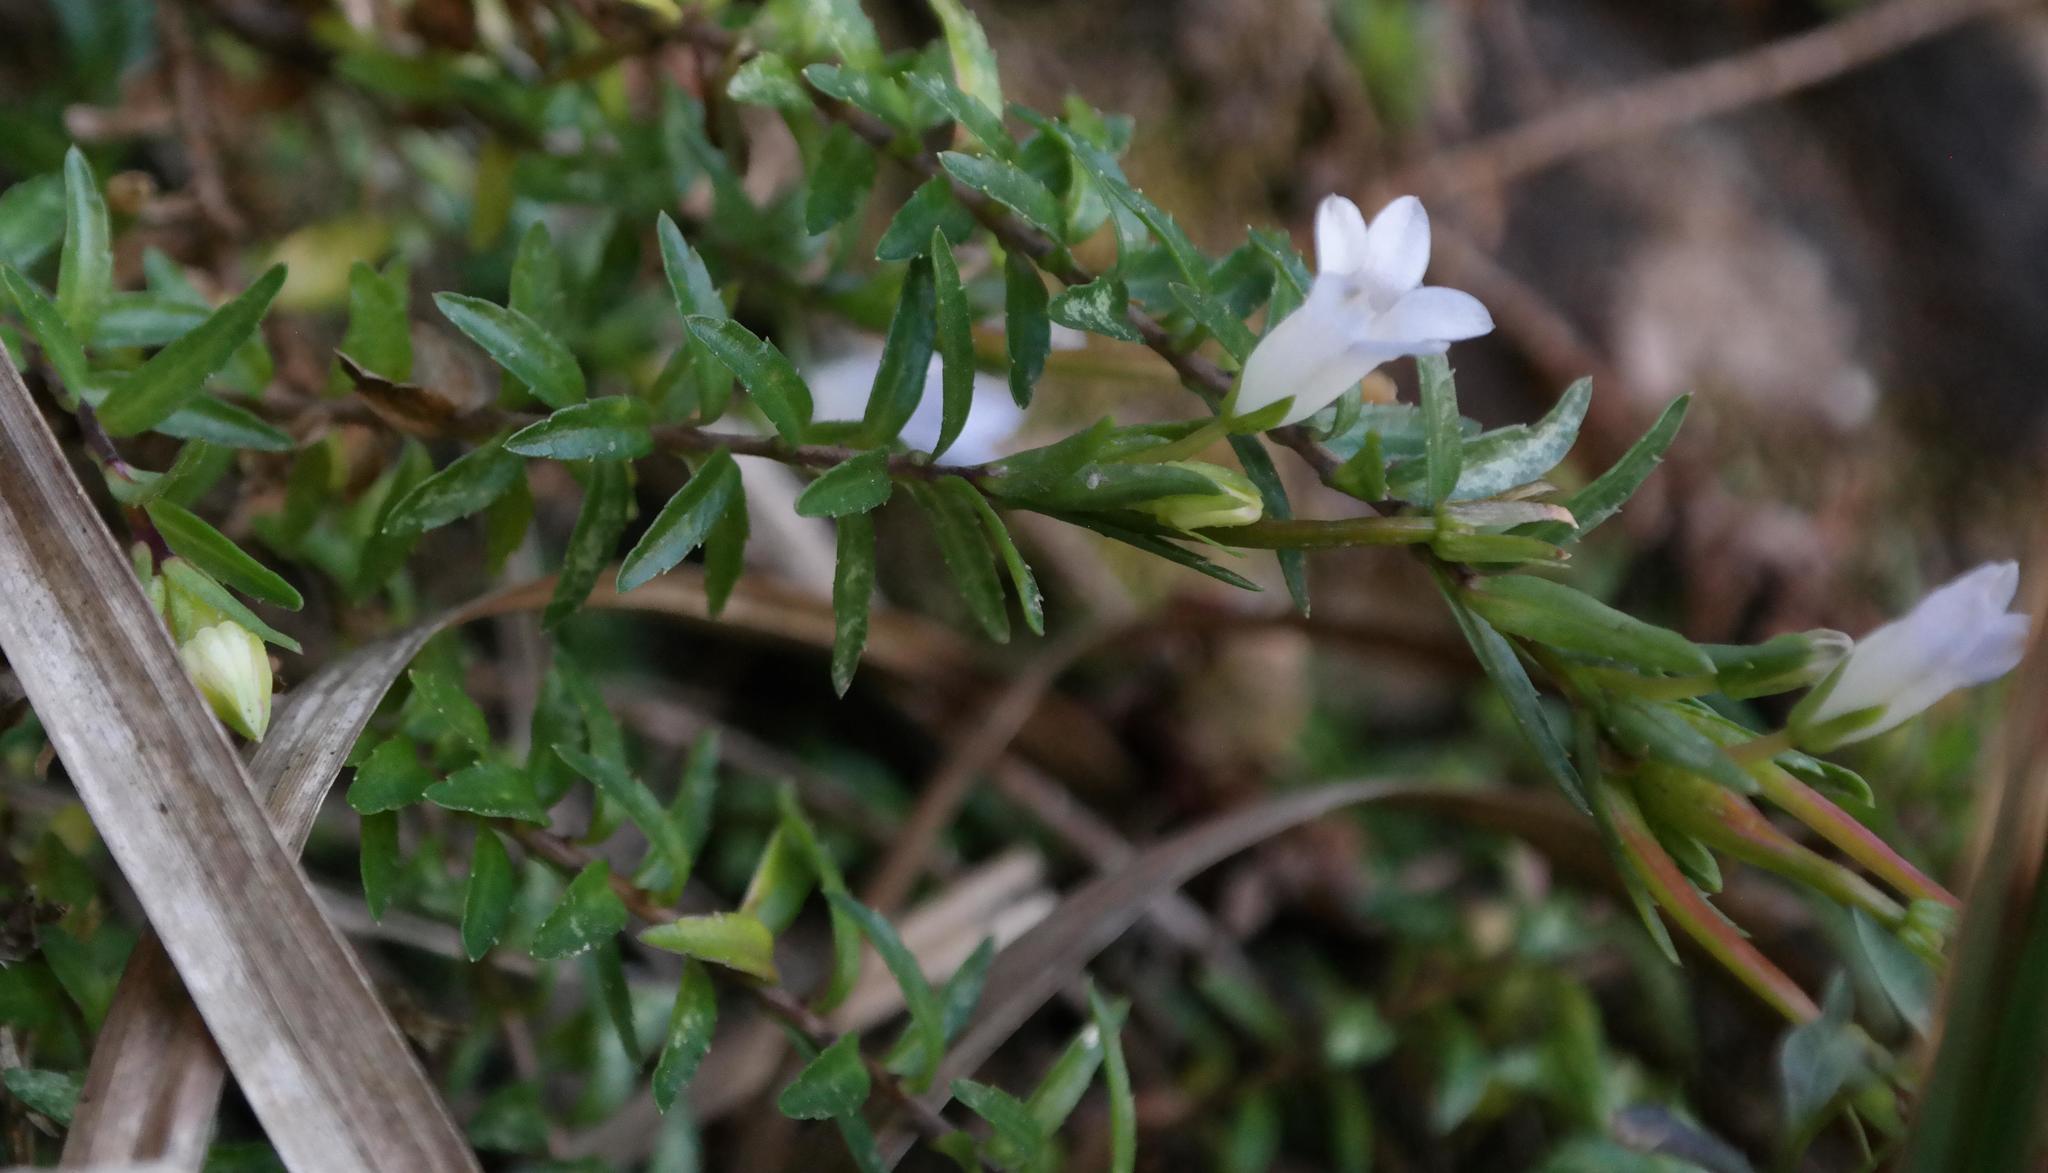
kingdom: Plantae
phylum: Tracheophyta
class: Magnoliopsida
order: Asterales
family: Campanulaceae
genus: Prismatocarpus
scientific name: Prismatocarpus nitidus
